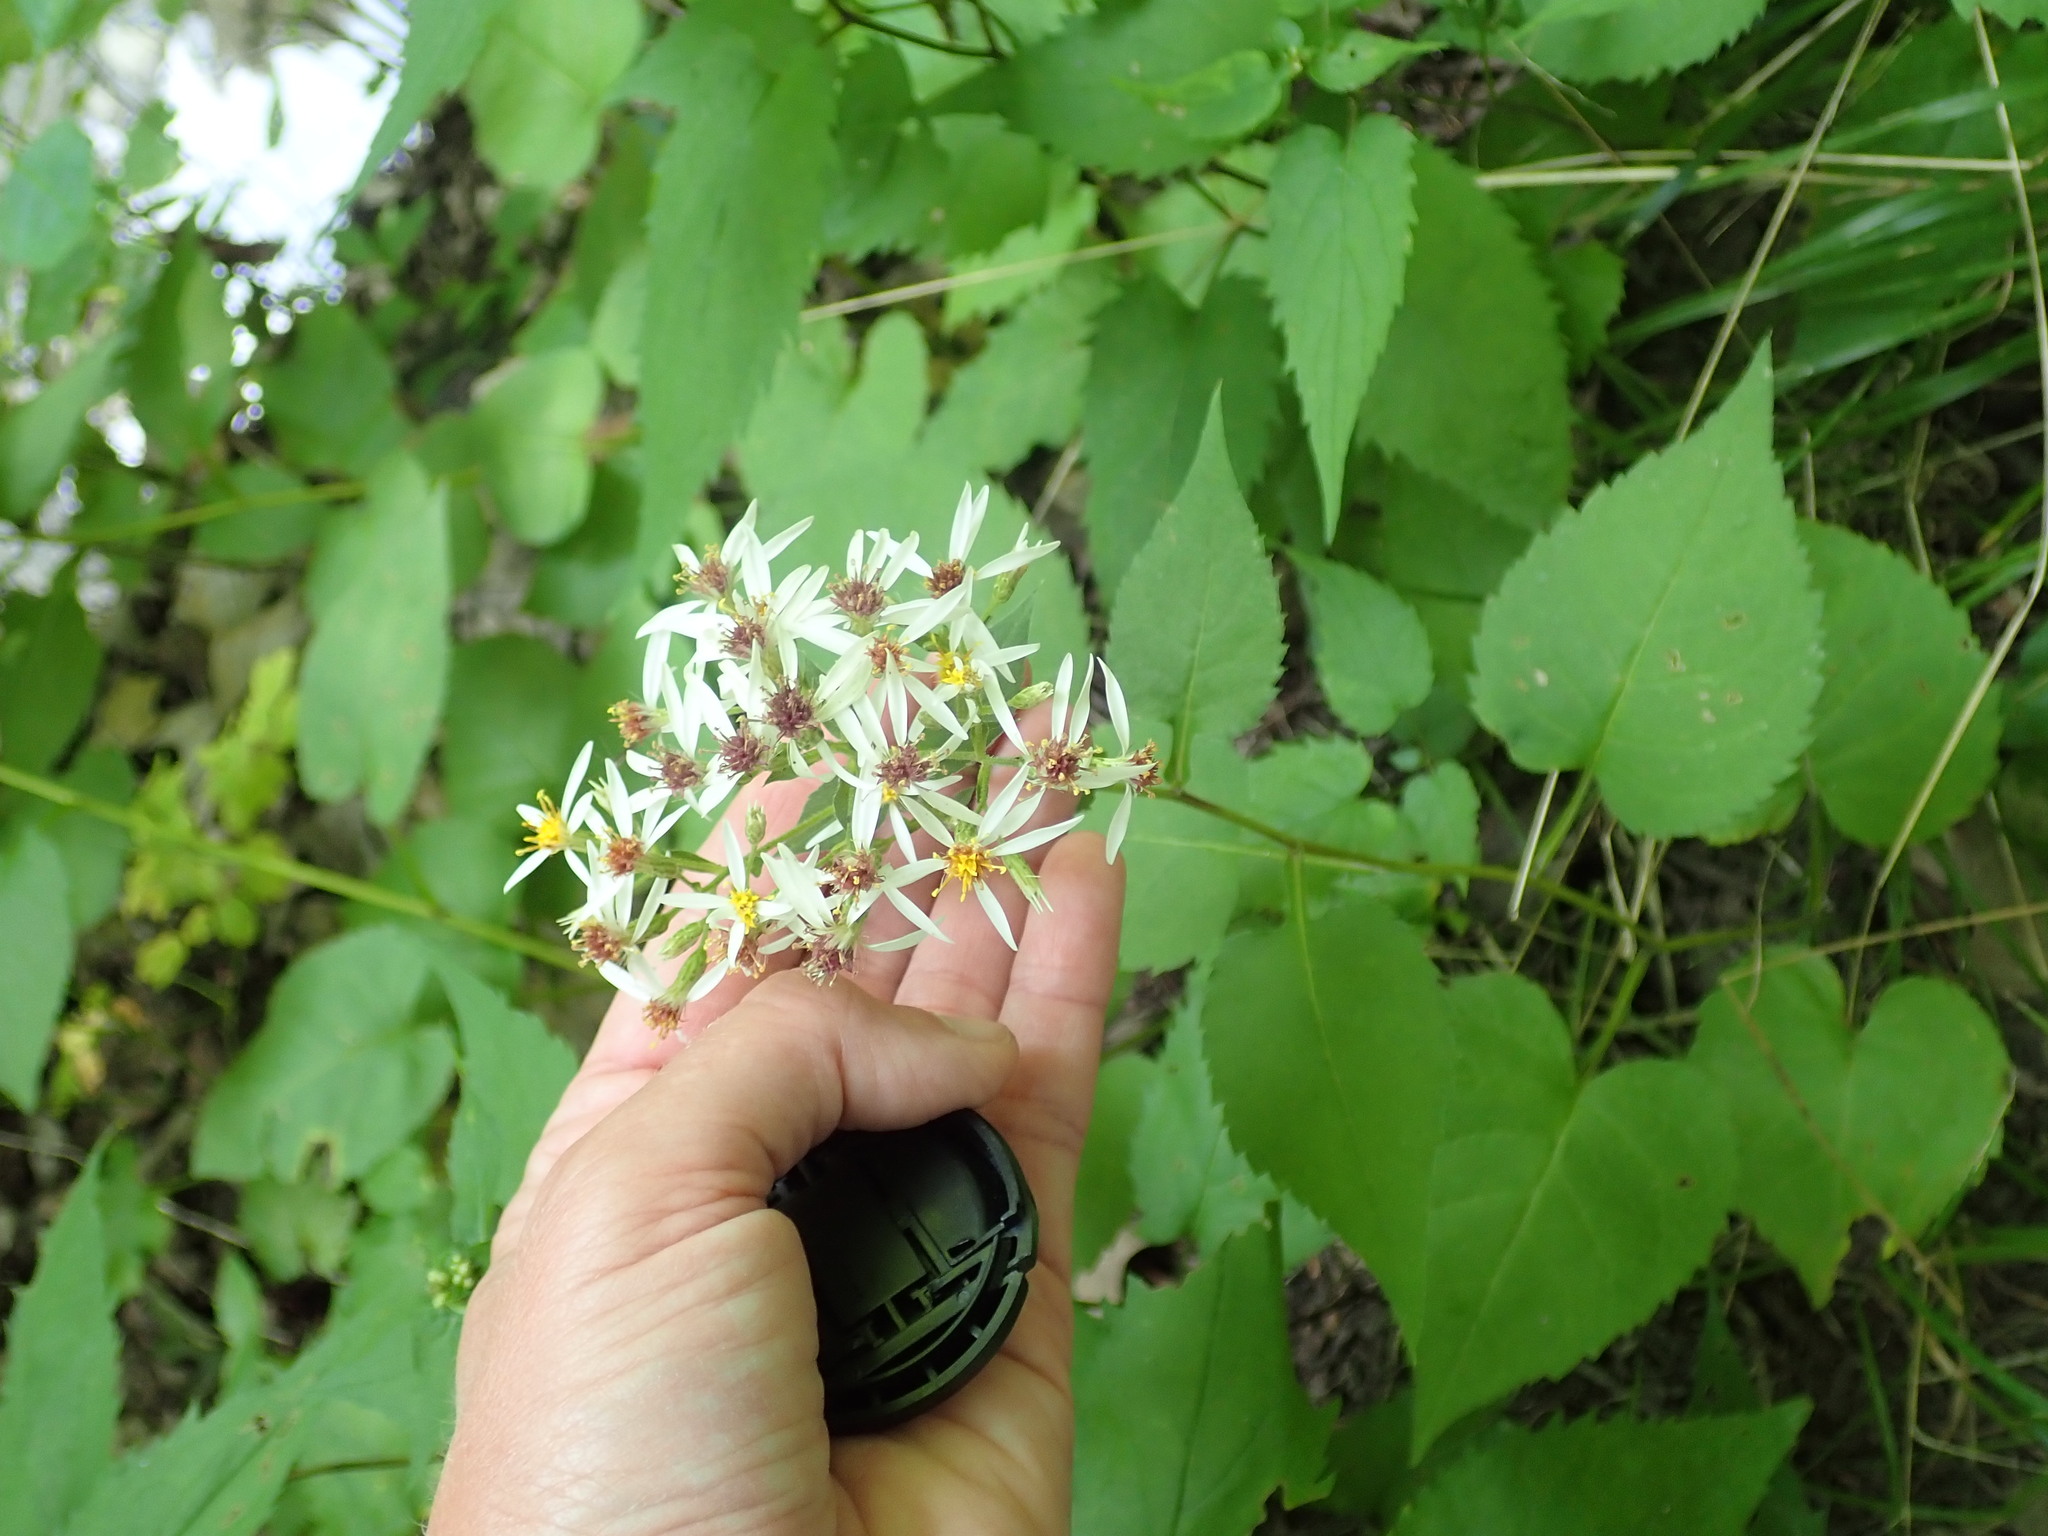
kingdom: Plantae
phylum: Tracheophyta
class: Magnoliopsida
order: Asterales
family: Asteraceae
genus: Eurybia
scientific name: Eurybia divaricata
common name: White wood aster
